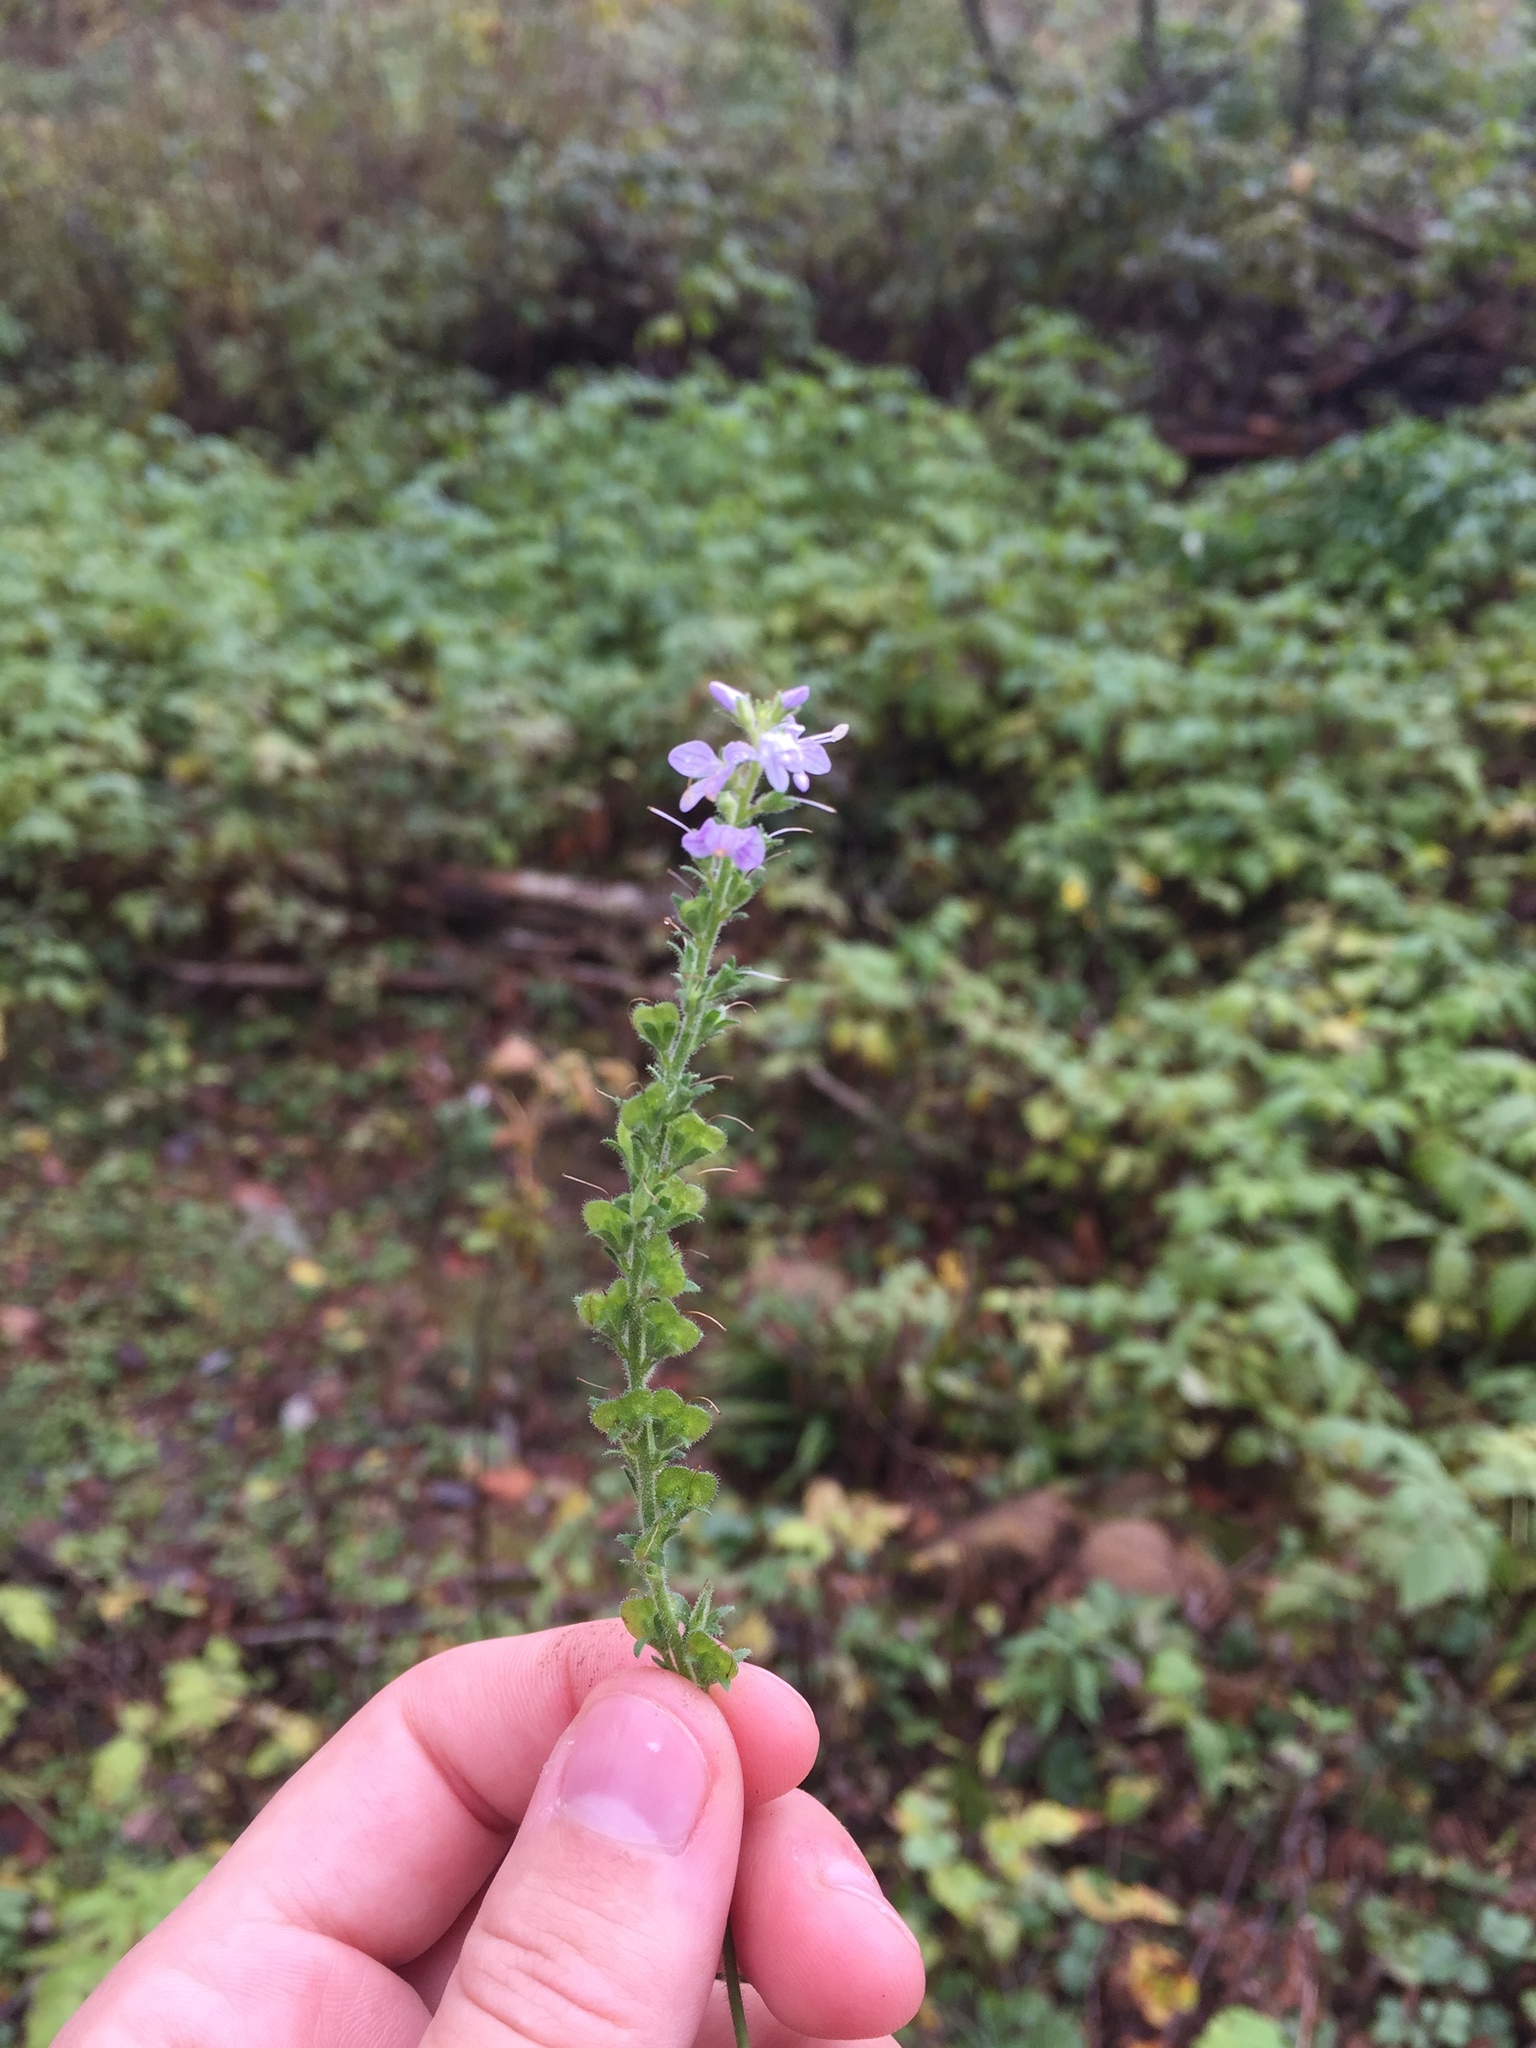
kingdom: Plantae
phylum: Tracheophyta
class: Magnoliopsida
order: Lamiales
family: Plantaginaceae
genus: Veronica
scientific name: Veronica officinalis
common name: Common speedwell
